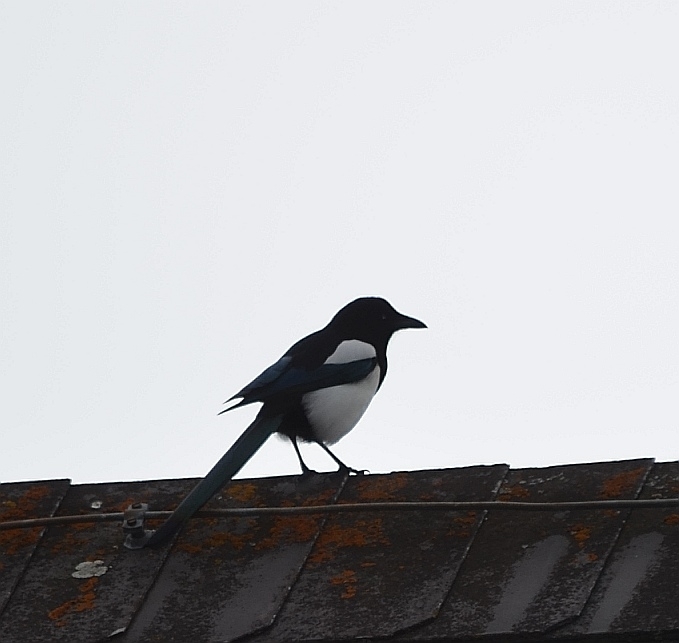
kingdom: Animalia
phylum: Chordata
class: Aves
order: Passeriformes
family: Corvidae
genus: Pica
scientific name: Pica pica
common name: Eurasian magpie
